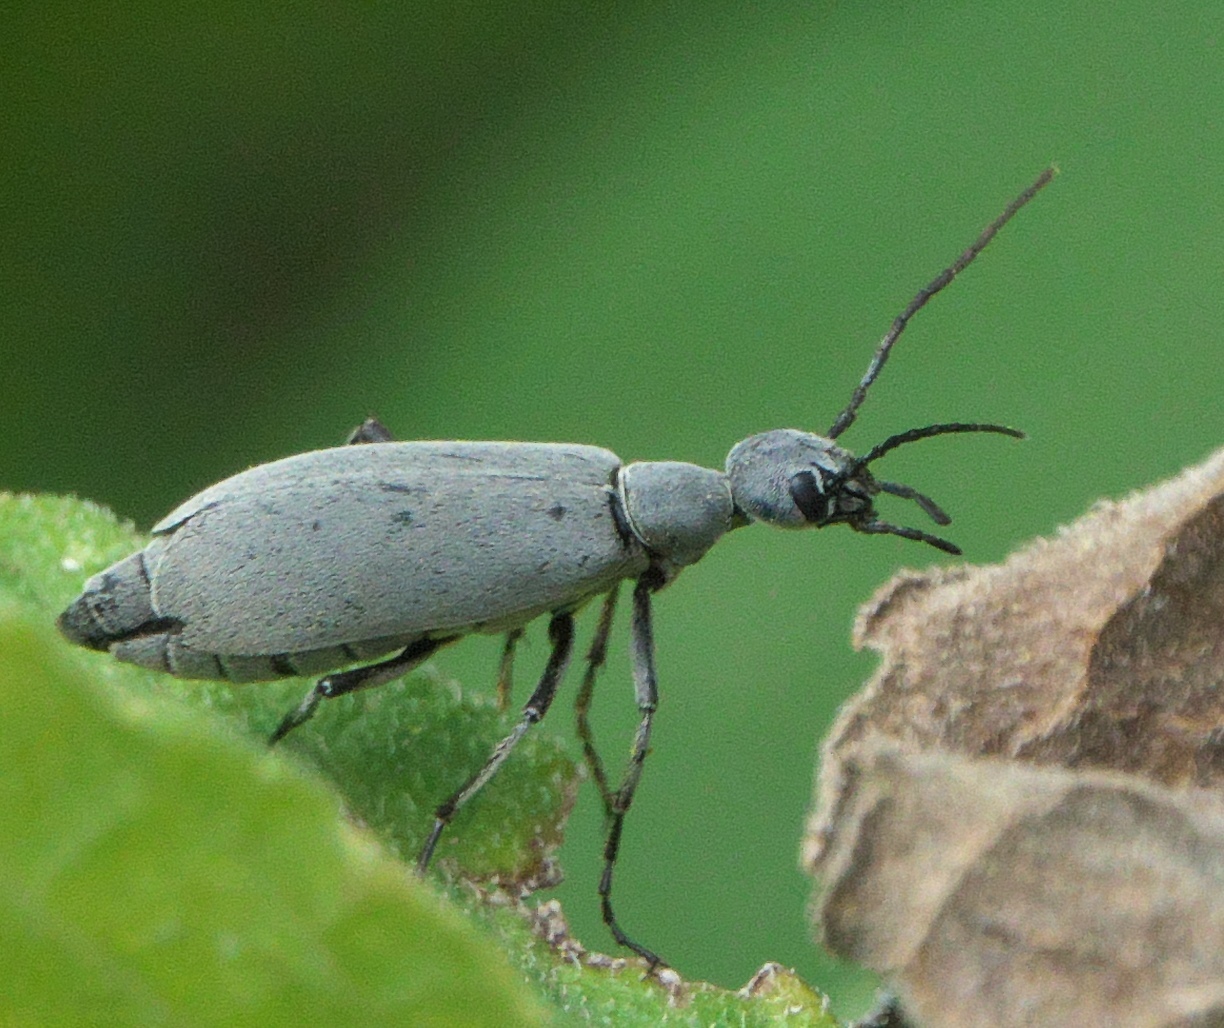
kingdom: Animalia
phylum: Arthropoda
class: Insecta
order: Coleoptera
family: Meloidae
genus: Epicauta
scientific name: Epicauta funebris
